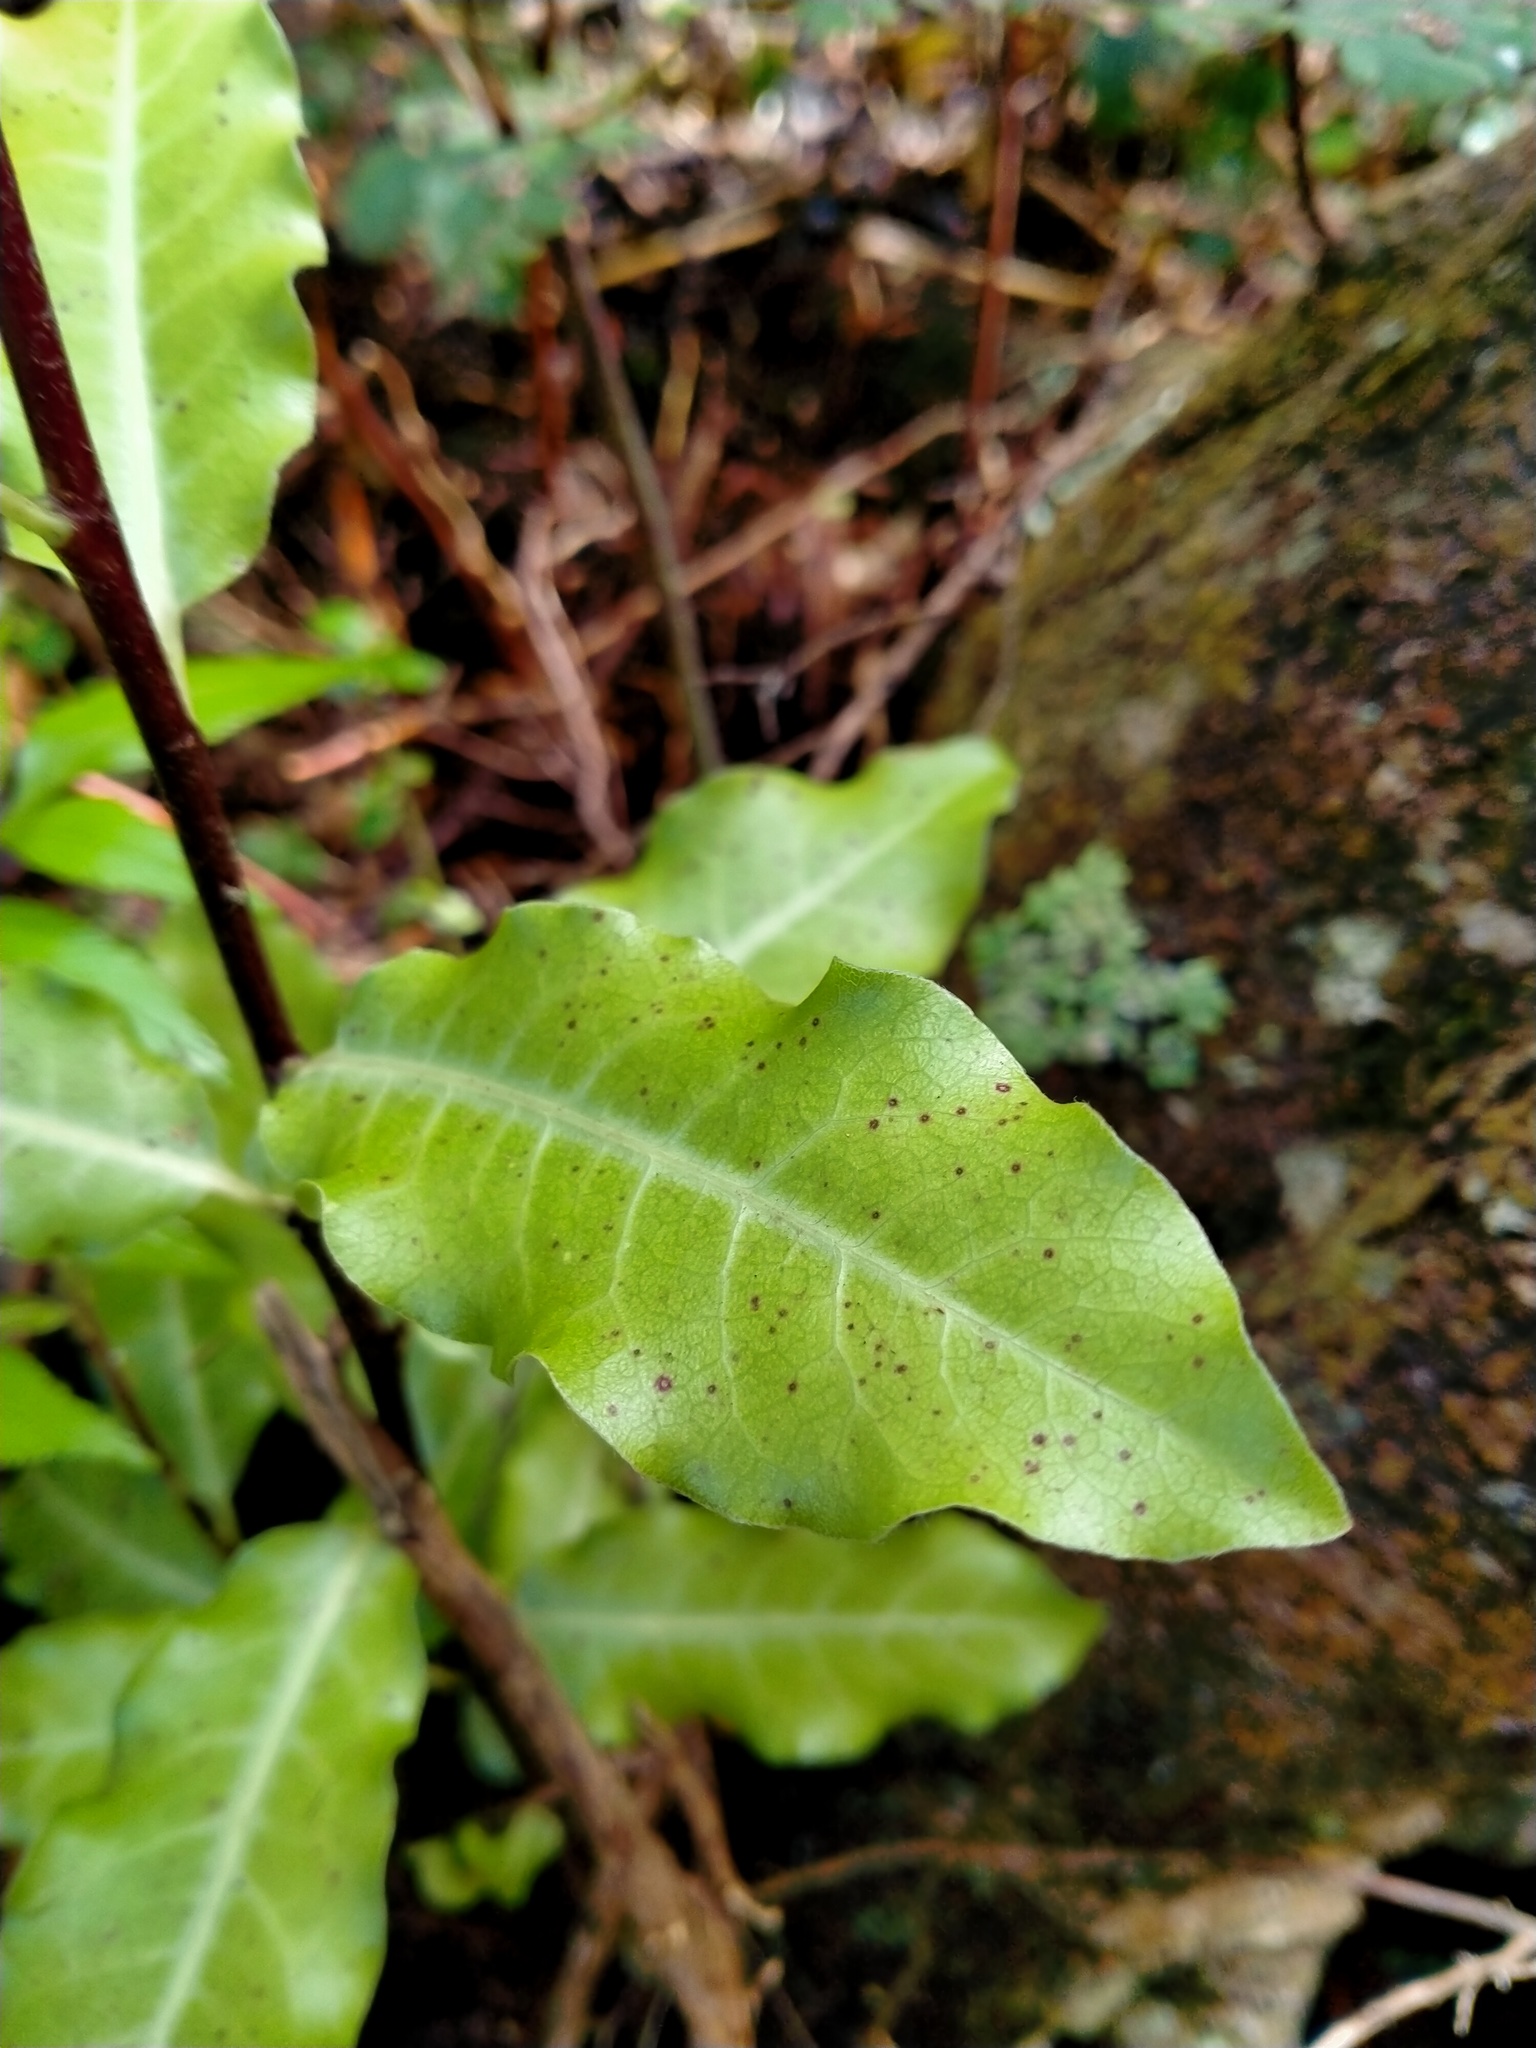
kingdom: Plantae
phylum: Tracheophyta
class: Magnoliopsida
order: Apiales
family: Pittosporaceae
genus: Pittosporum
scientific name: Pittosporum tenuifolium
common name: Kohuhu
